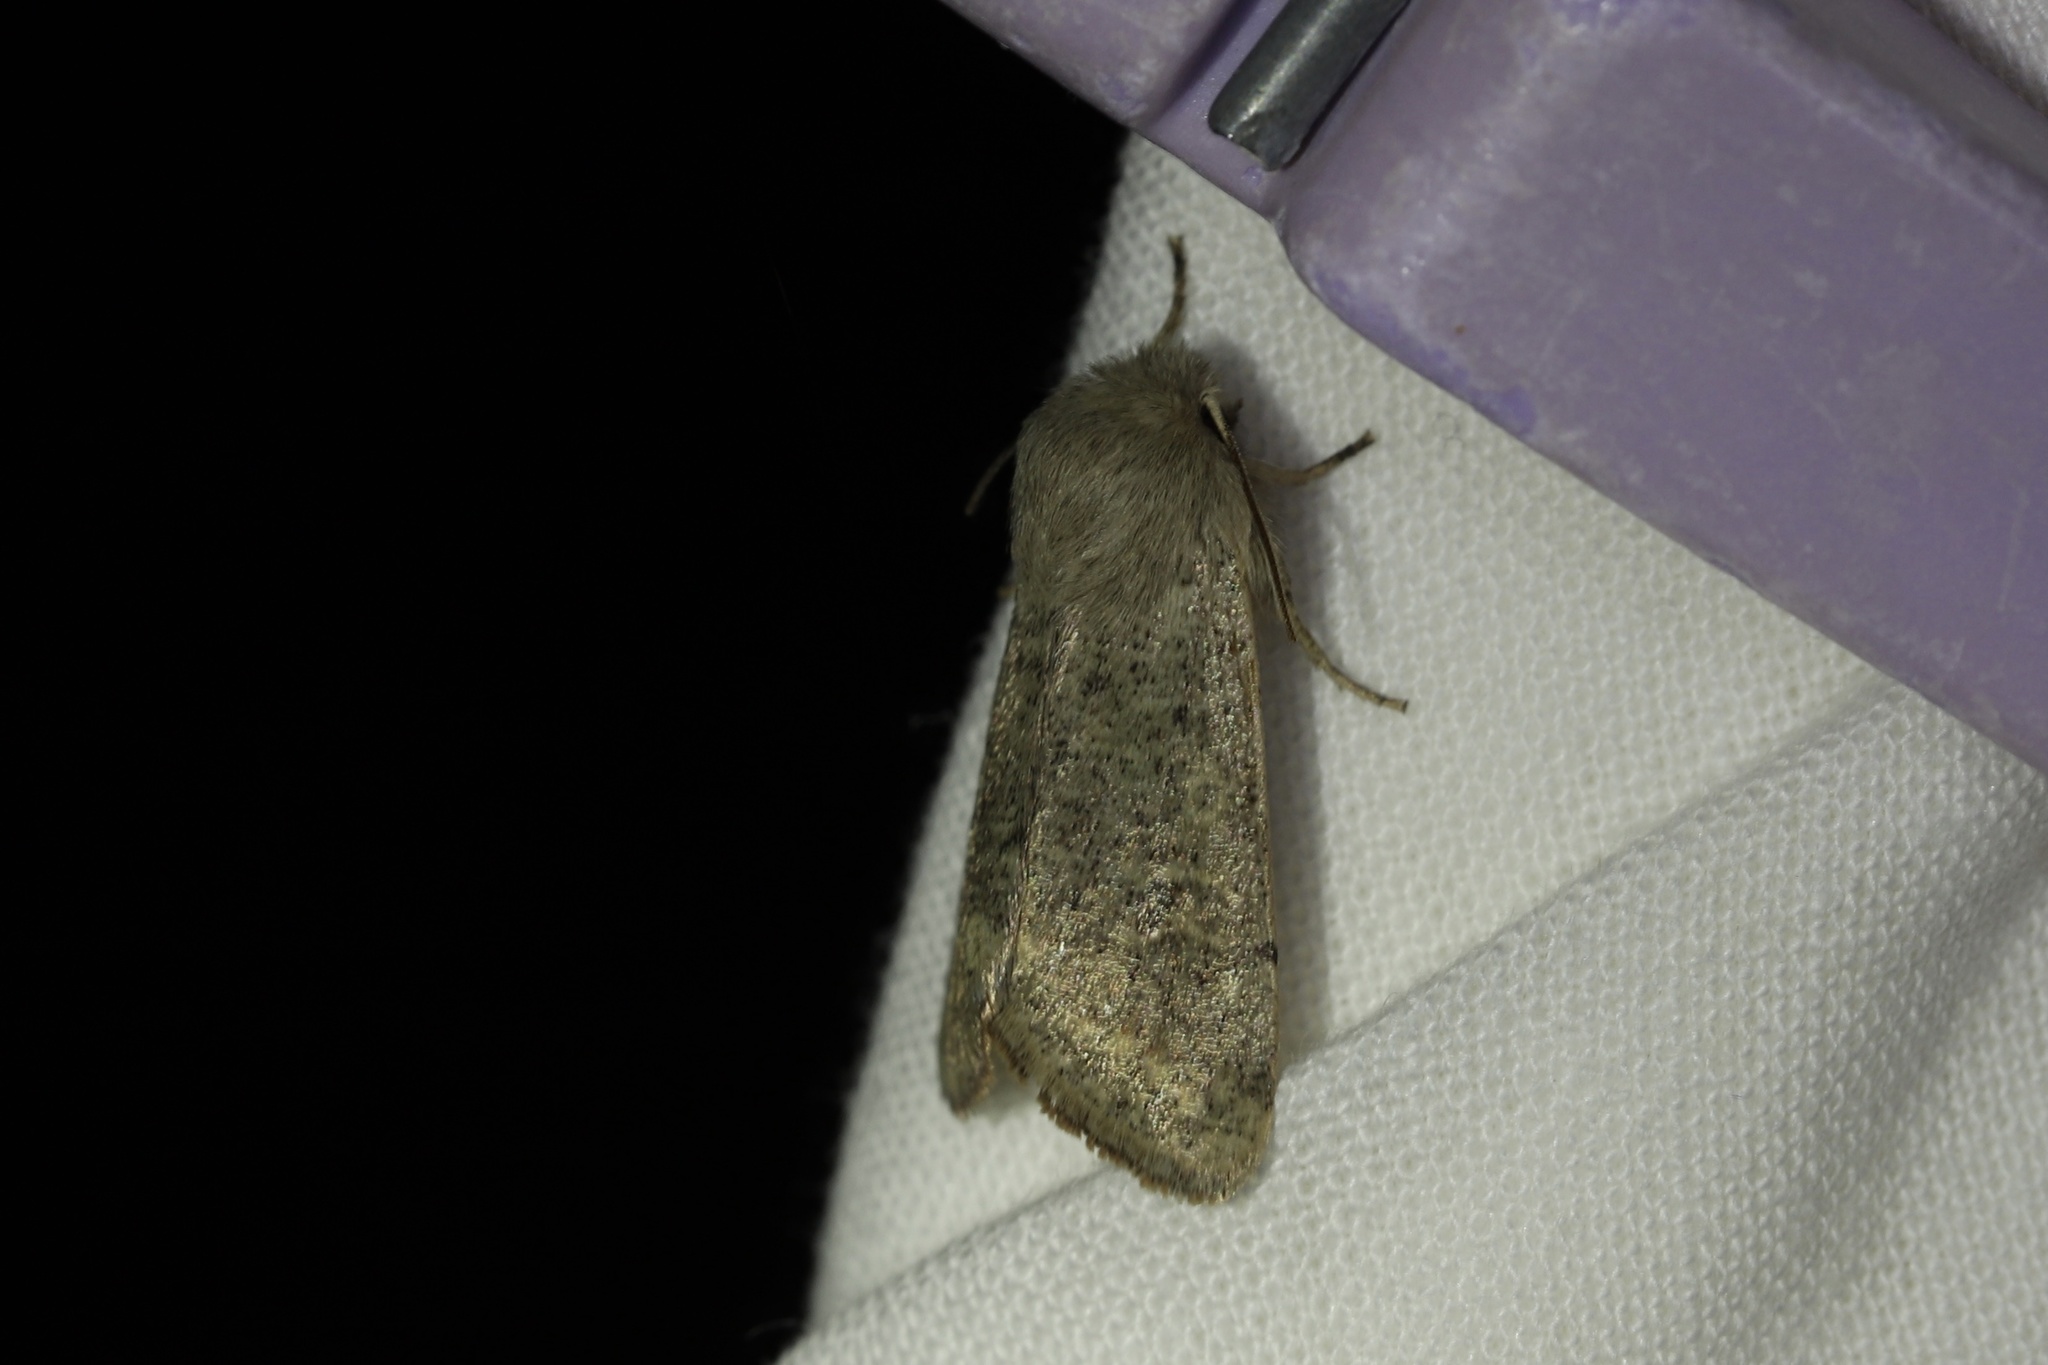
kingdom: Animalia
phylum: Arthropoda
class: Insecta
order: Lepidoptera
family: Noctuidae
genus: Orthosia
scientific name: Orthosia cruda
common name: Small quaker
